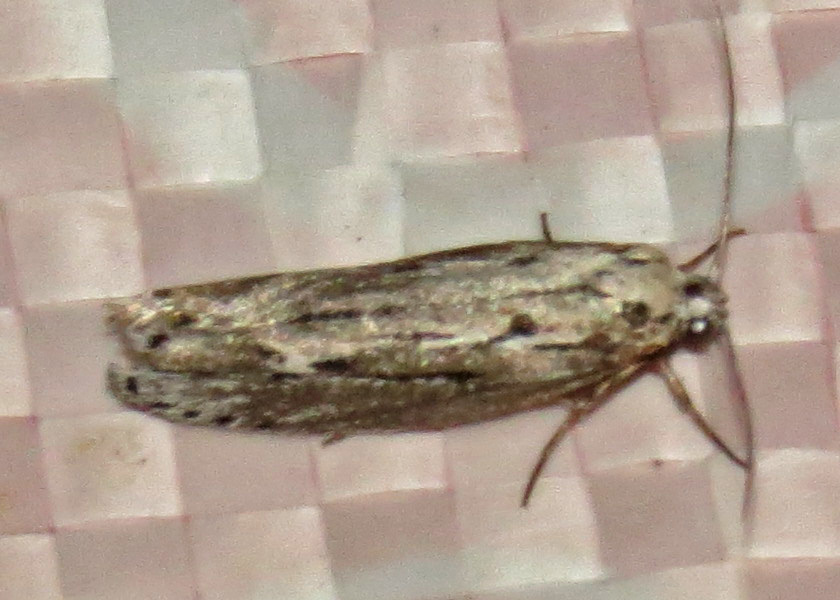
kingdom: Animalia
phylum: Arthropoda
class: Insecta
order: Lepidoptera
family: Ethmiidae
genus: Ethmia
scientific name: Ethmia discostrigella
